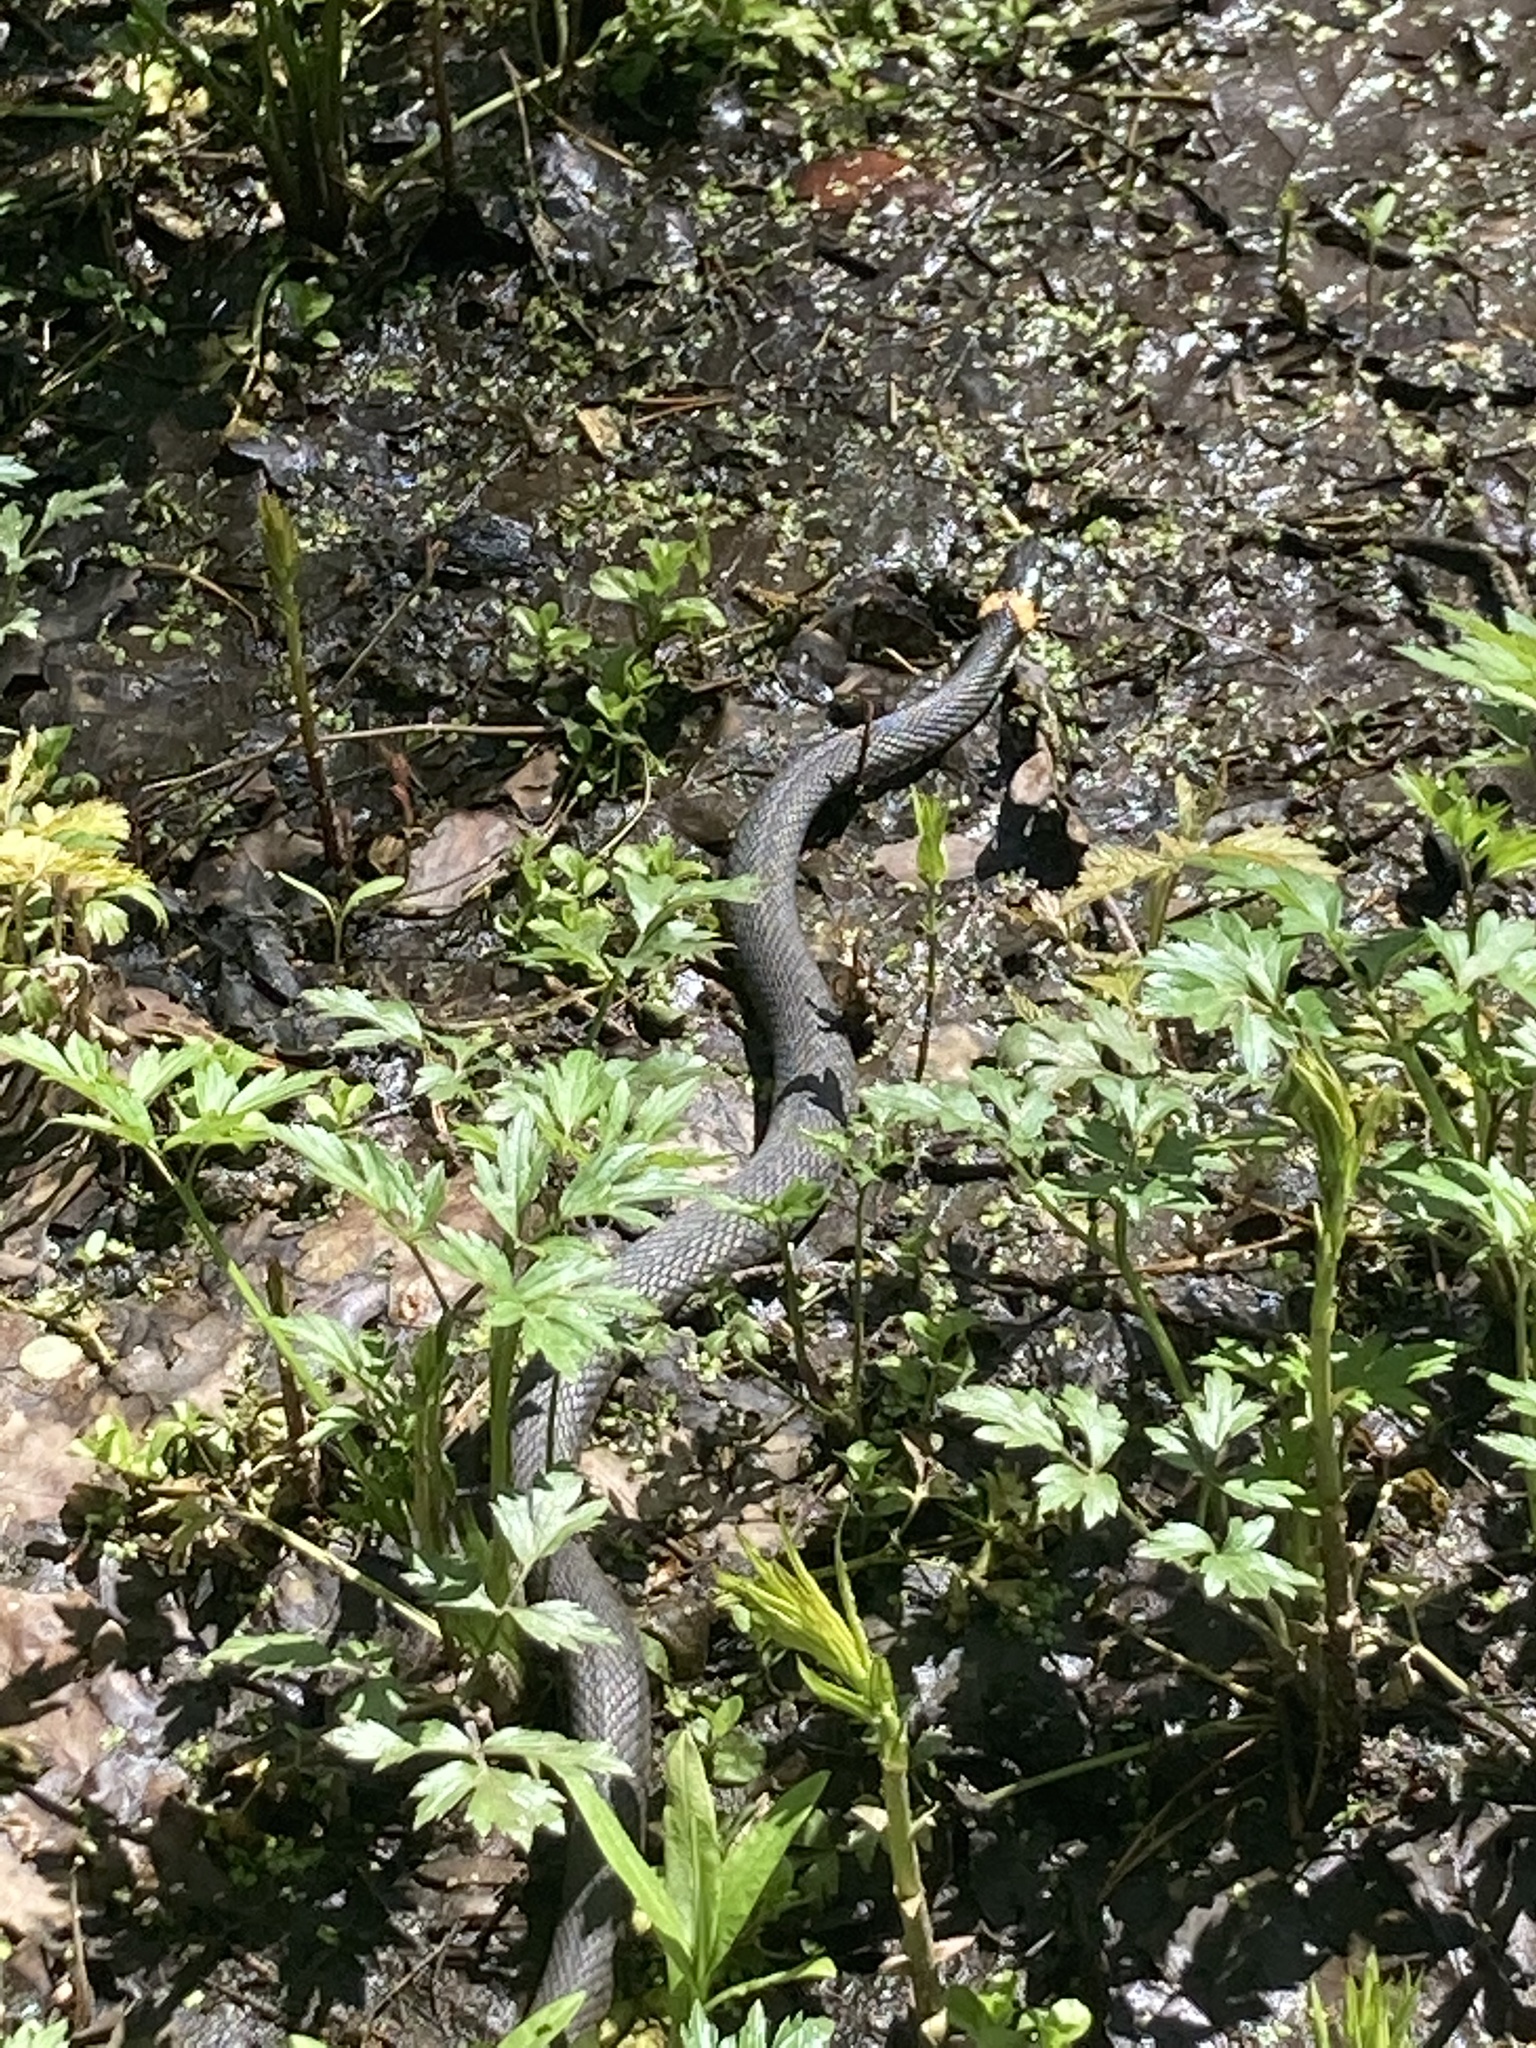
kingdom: Animalia
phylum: Chordata
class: Squamata
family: Colubridae
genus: Natrix
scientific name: Natrix natrix
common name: Grass snake
